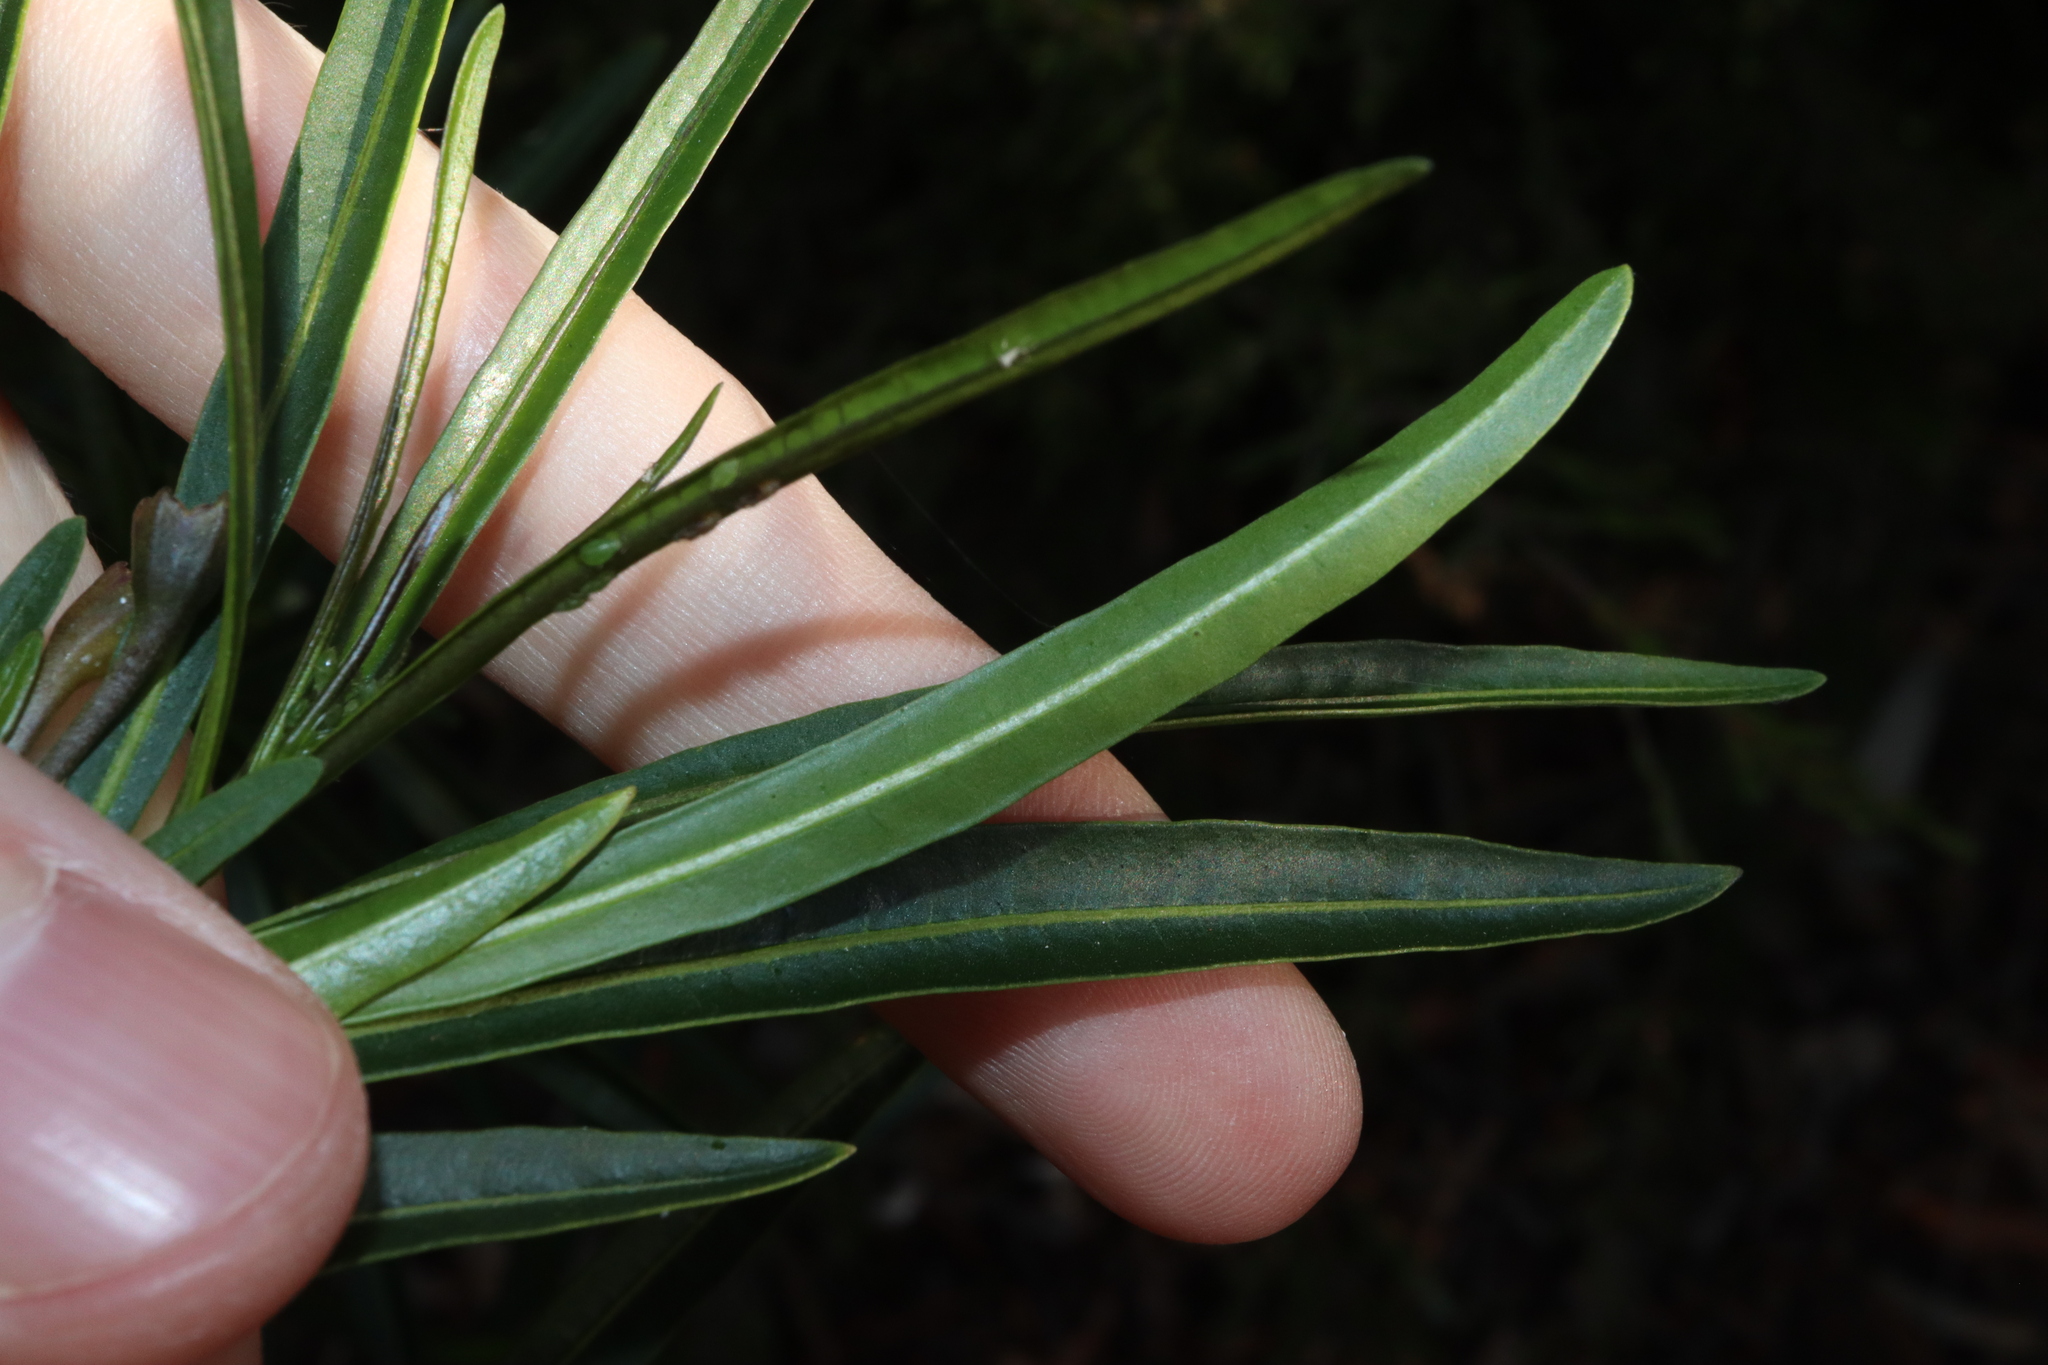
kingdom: Plantae
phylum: Tracheophyta
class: Magnoliopsida
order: Solanales
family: Solanaceae
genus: Solanum
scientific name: Solanum linearifolium
